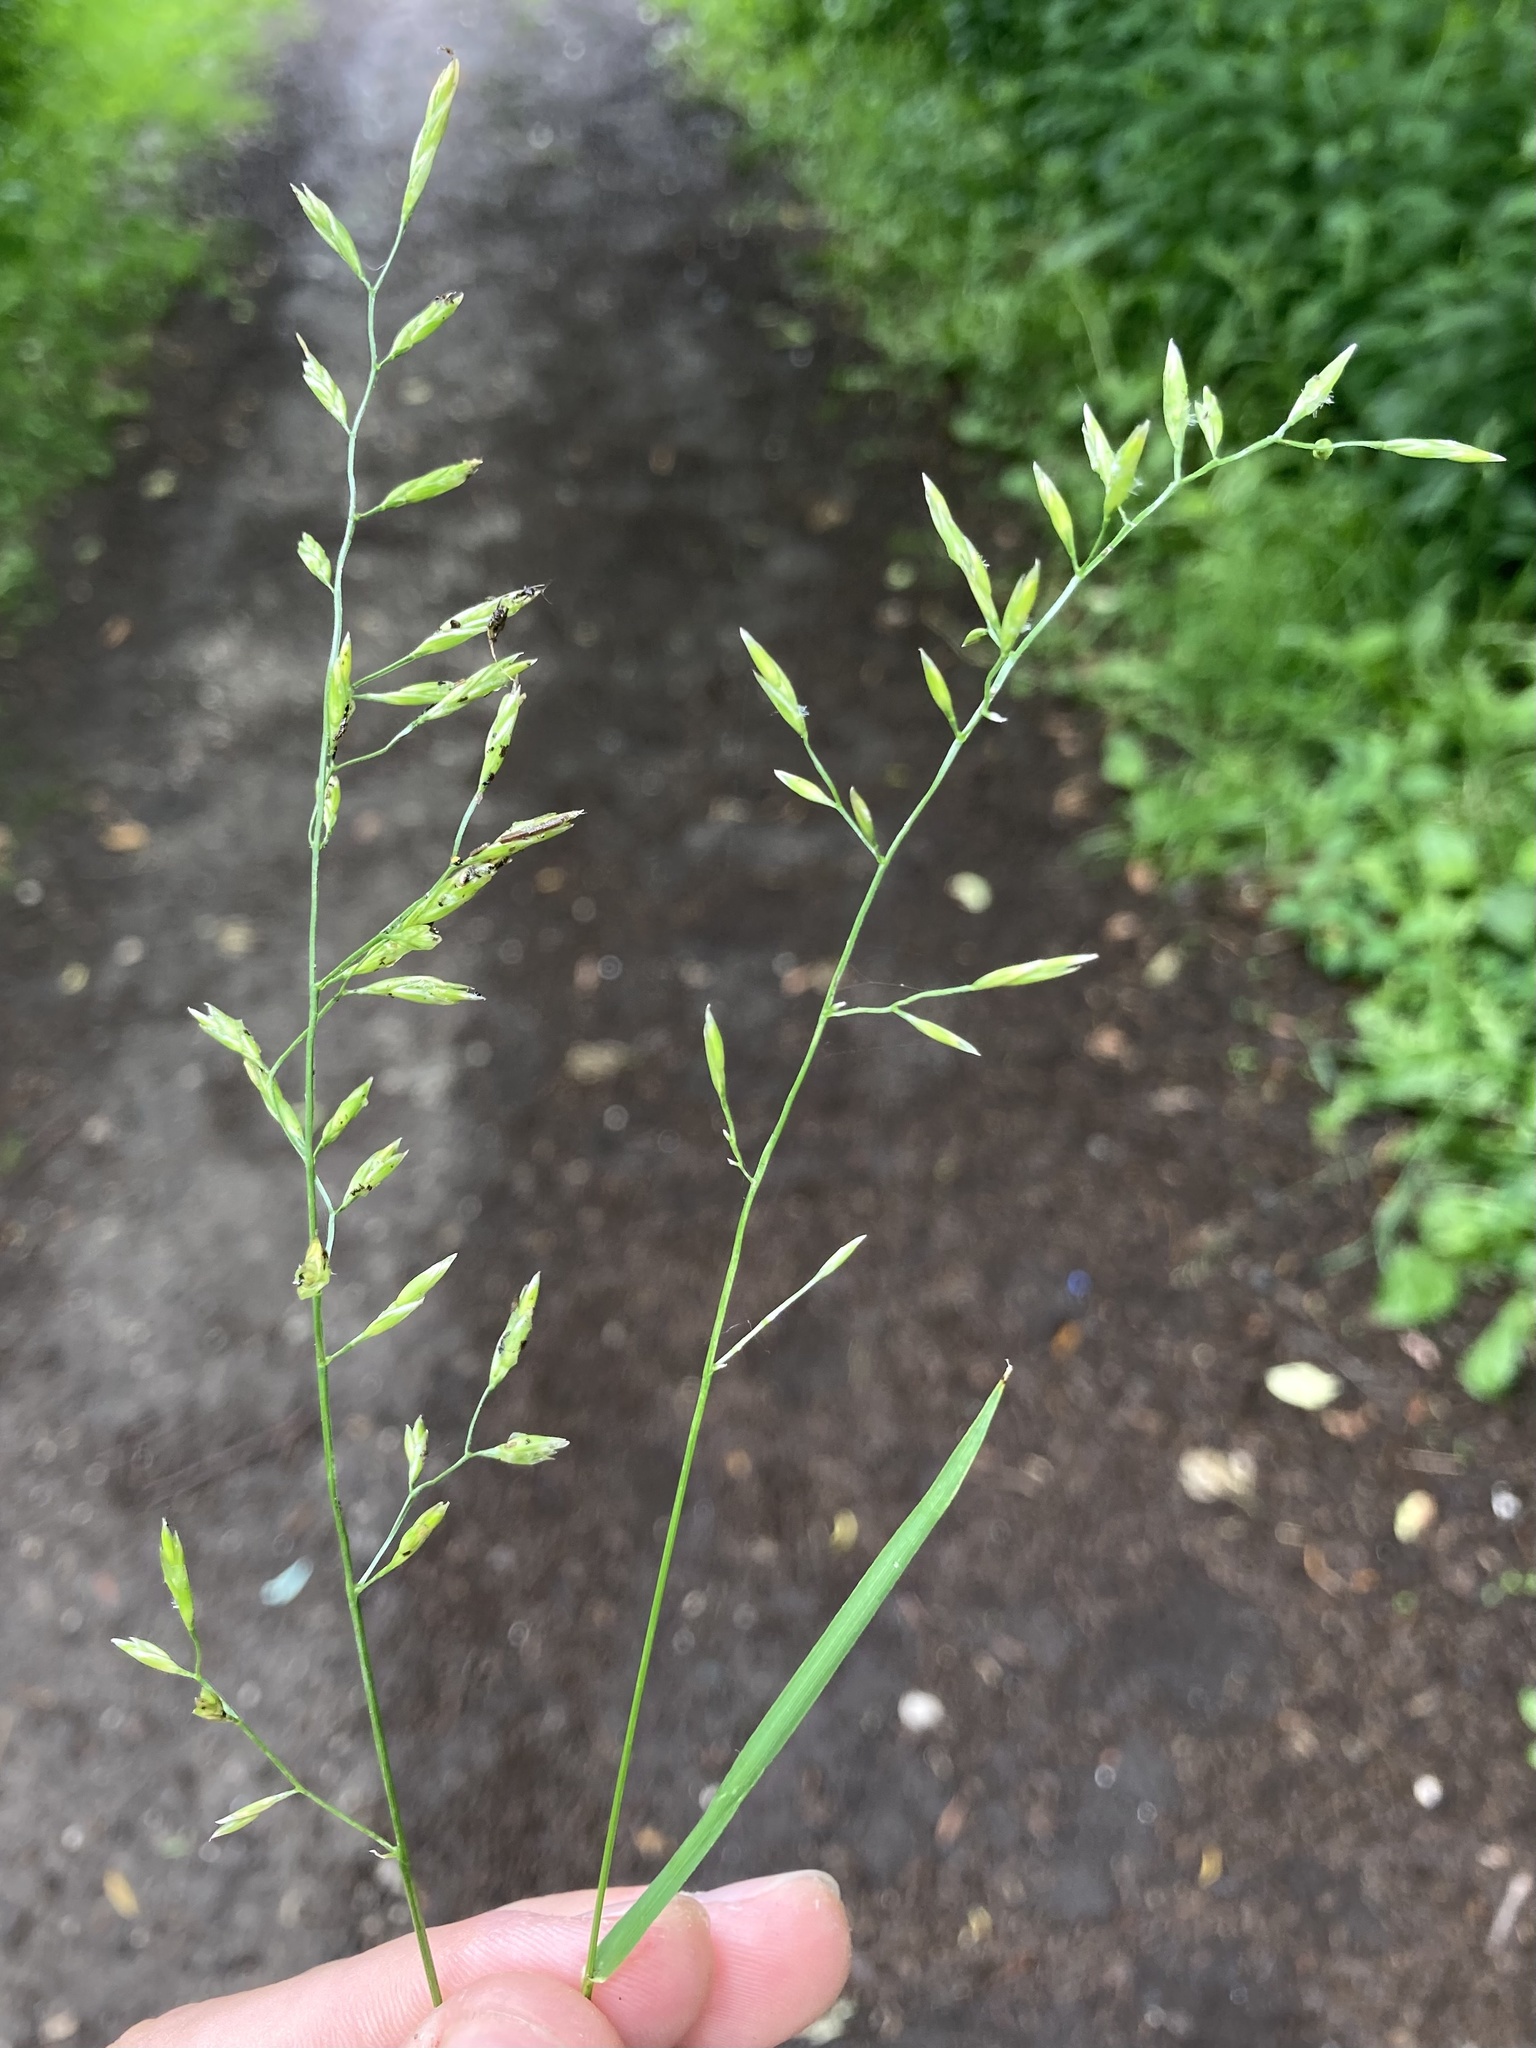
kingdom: Plantae
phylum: Tracheophyta
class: Liliopsida
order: Poales
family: Poaceae
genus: Lolium
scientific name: Lolium pratense
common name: Dover grass
